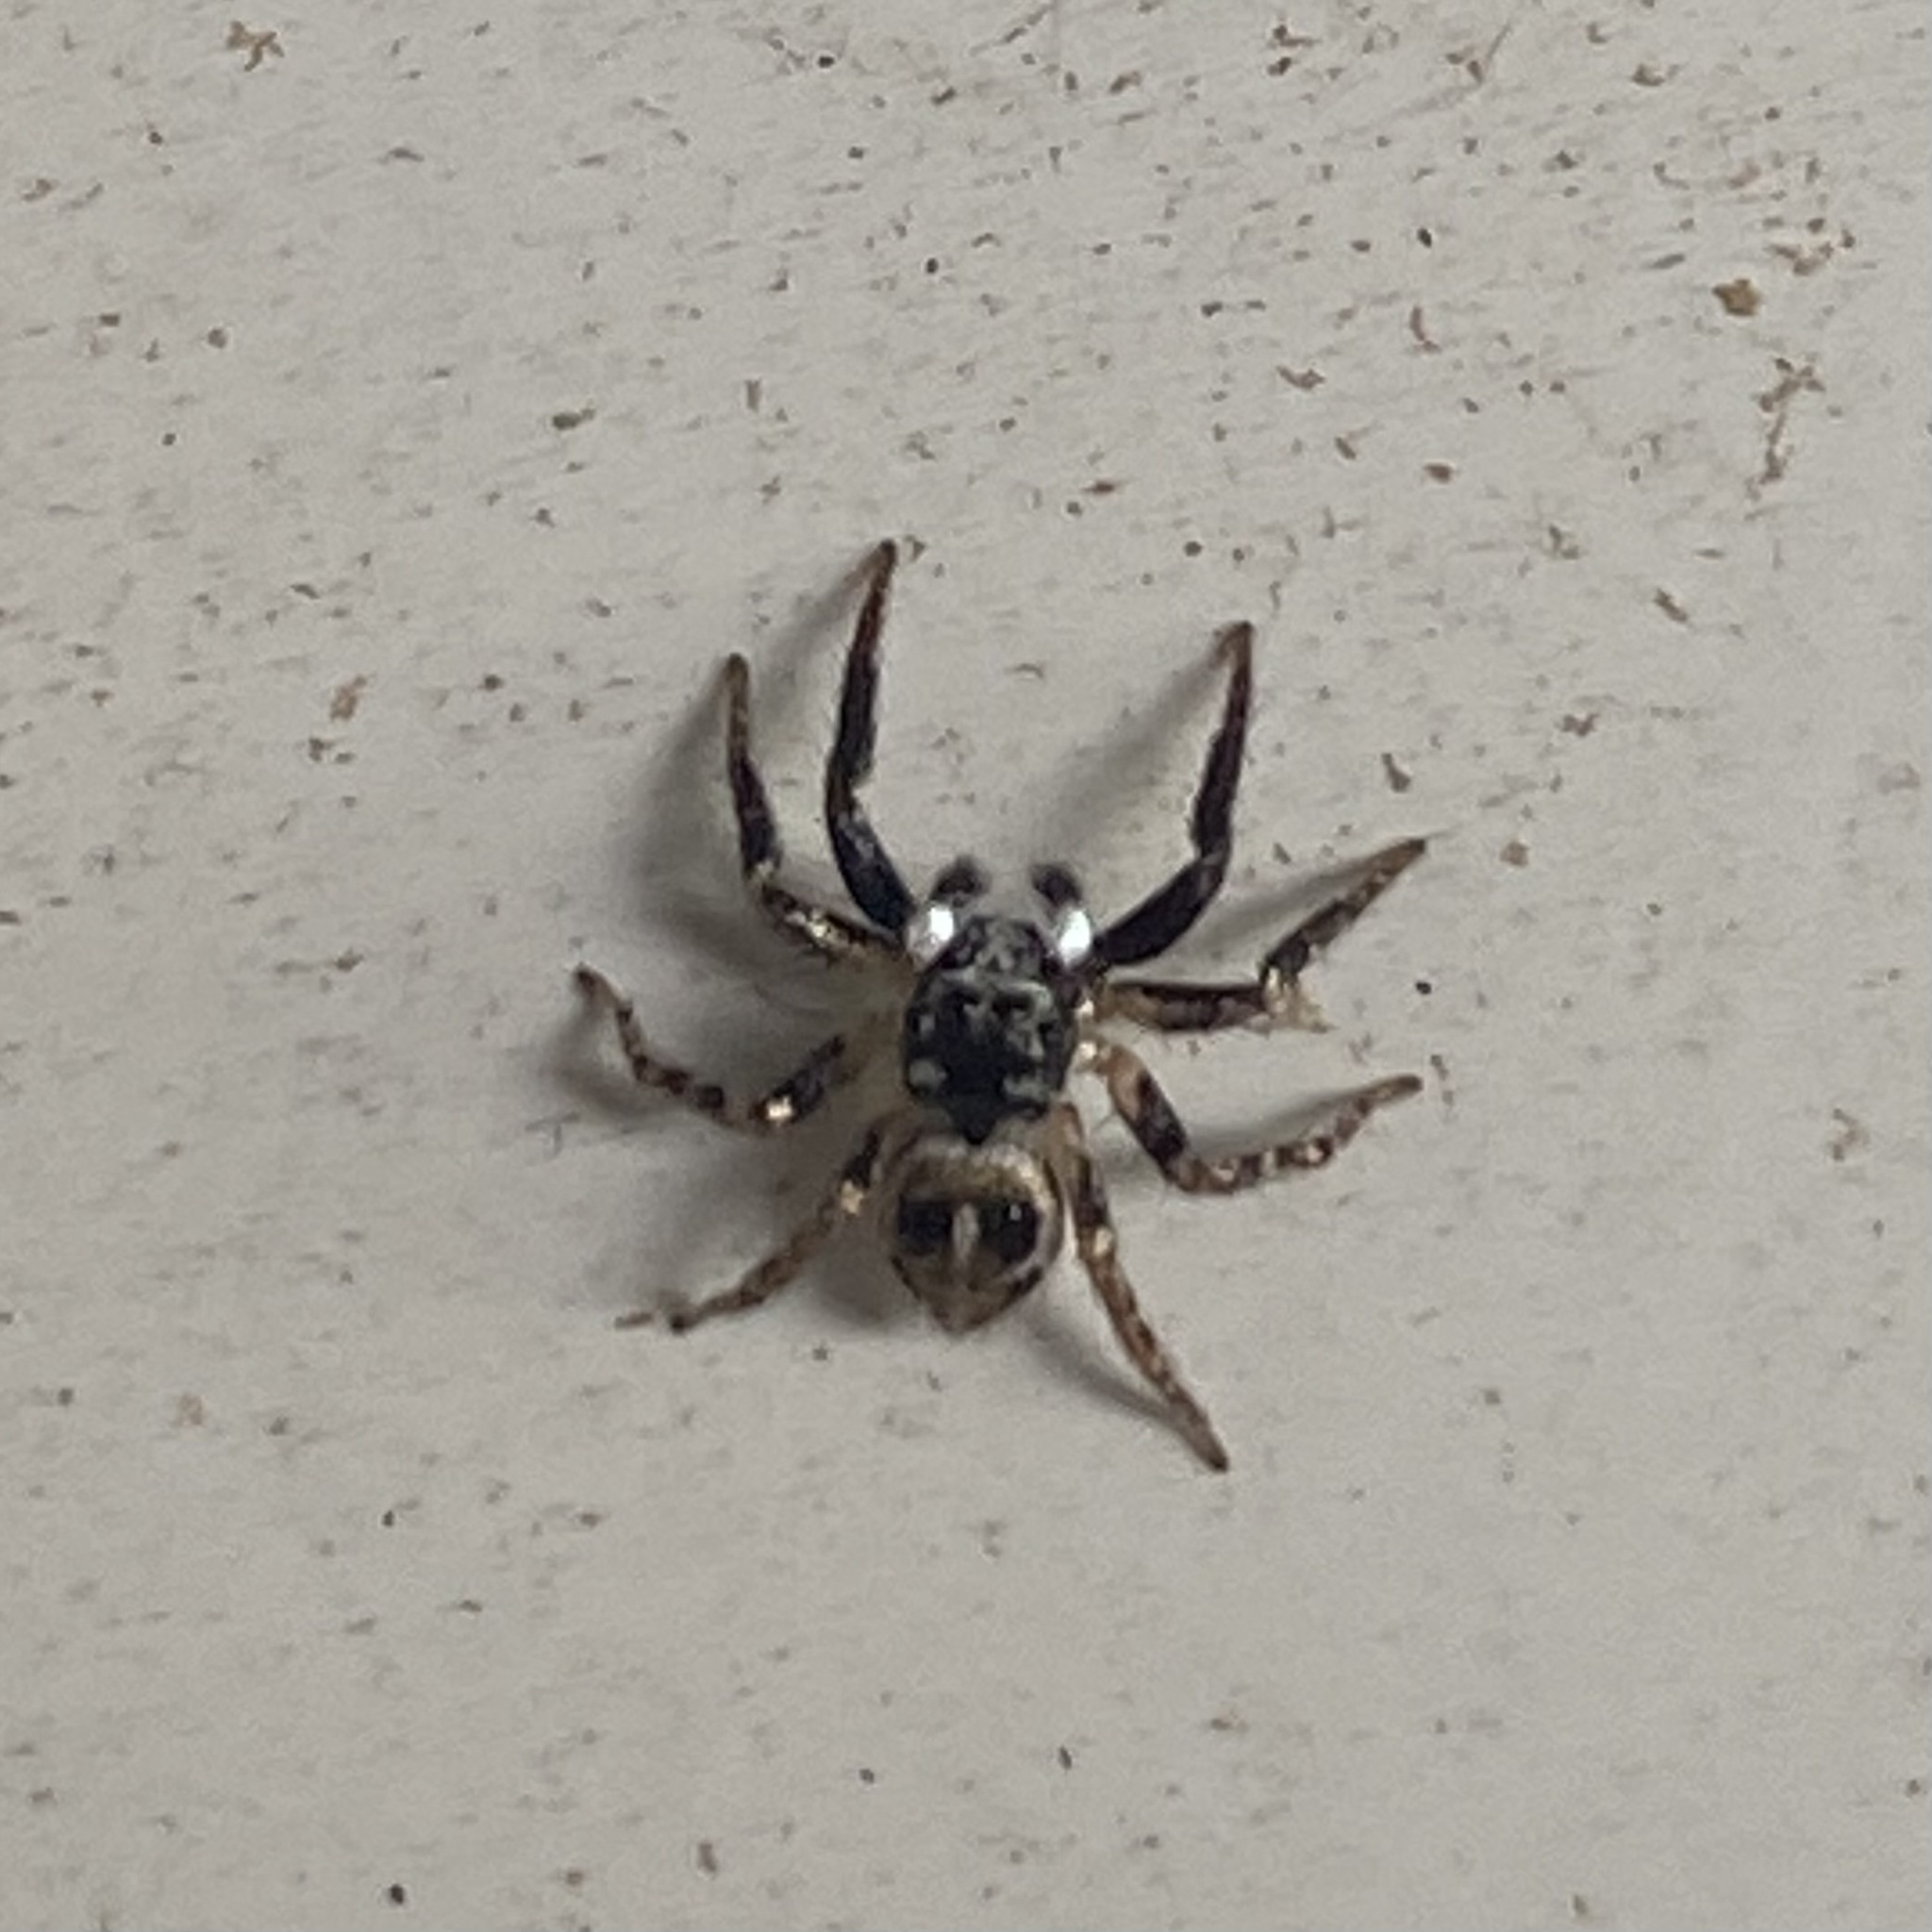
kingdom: Animalia
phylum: Arthropoda
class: Arachnida
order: Araneae
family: Salticidae
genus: Anasaitis
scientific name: Anasaitis canosa
